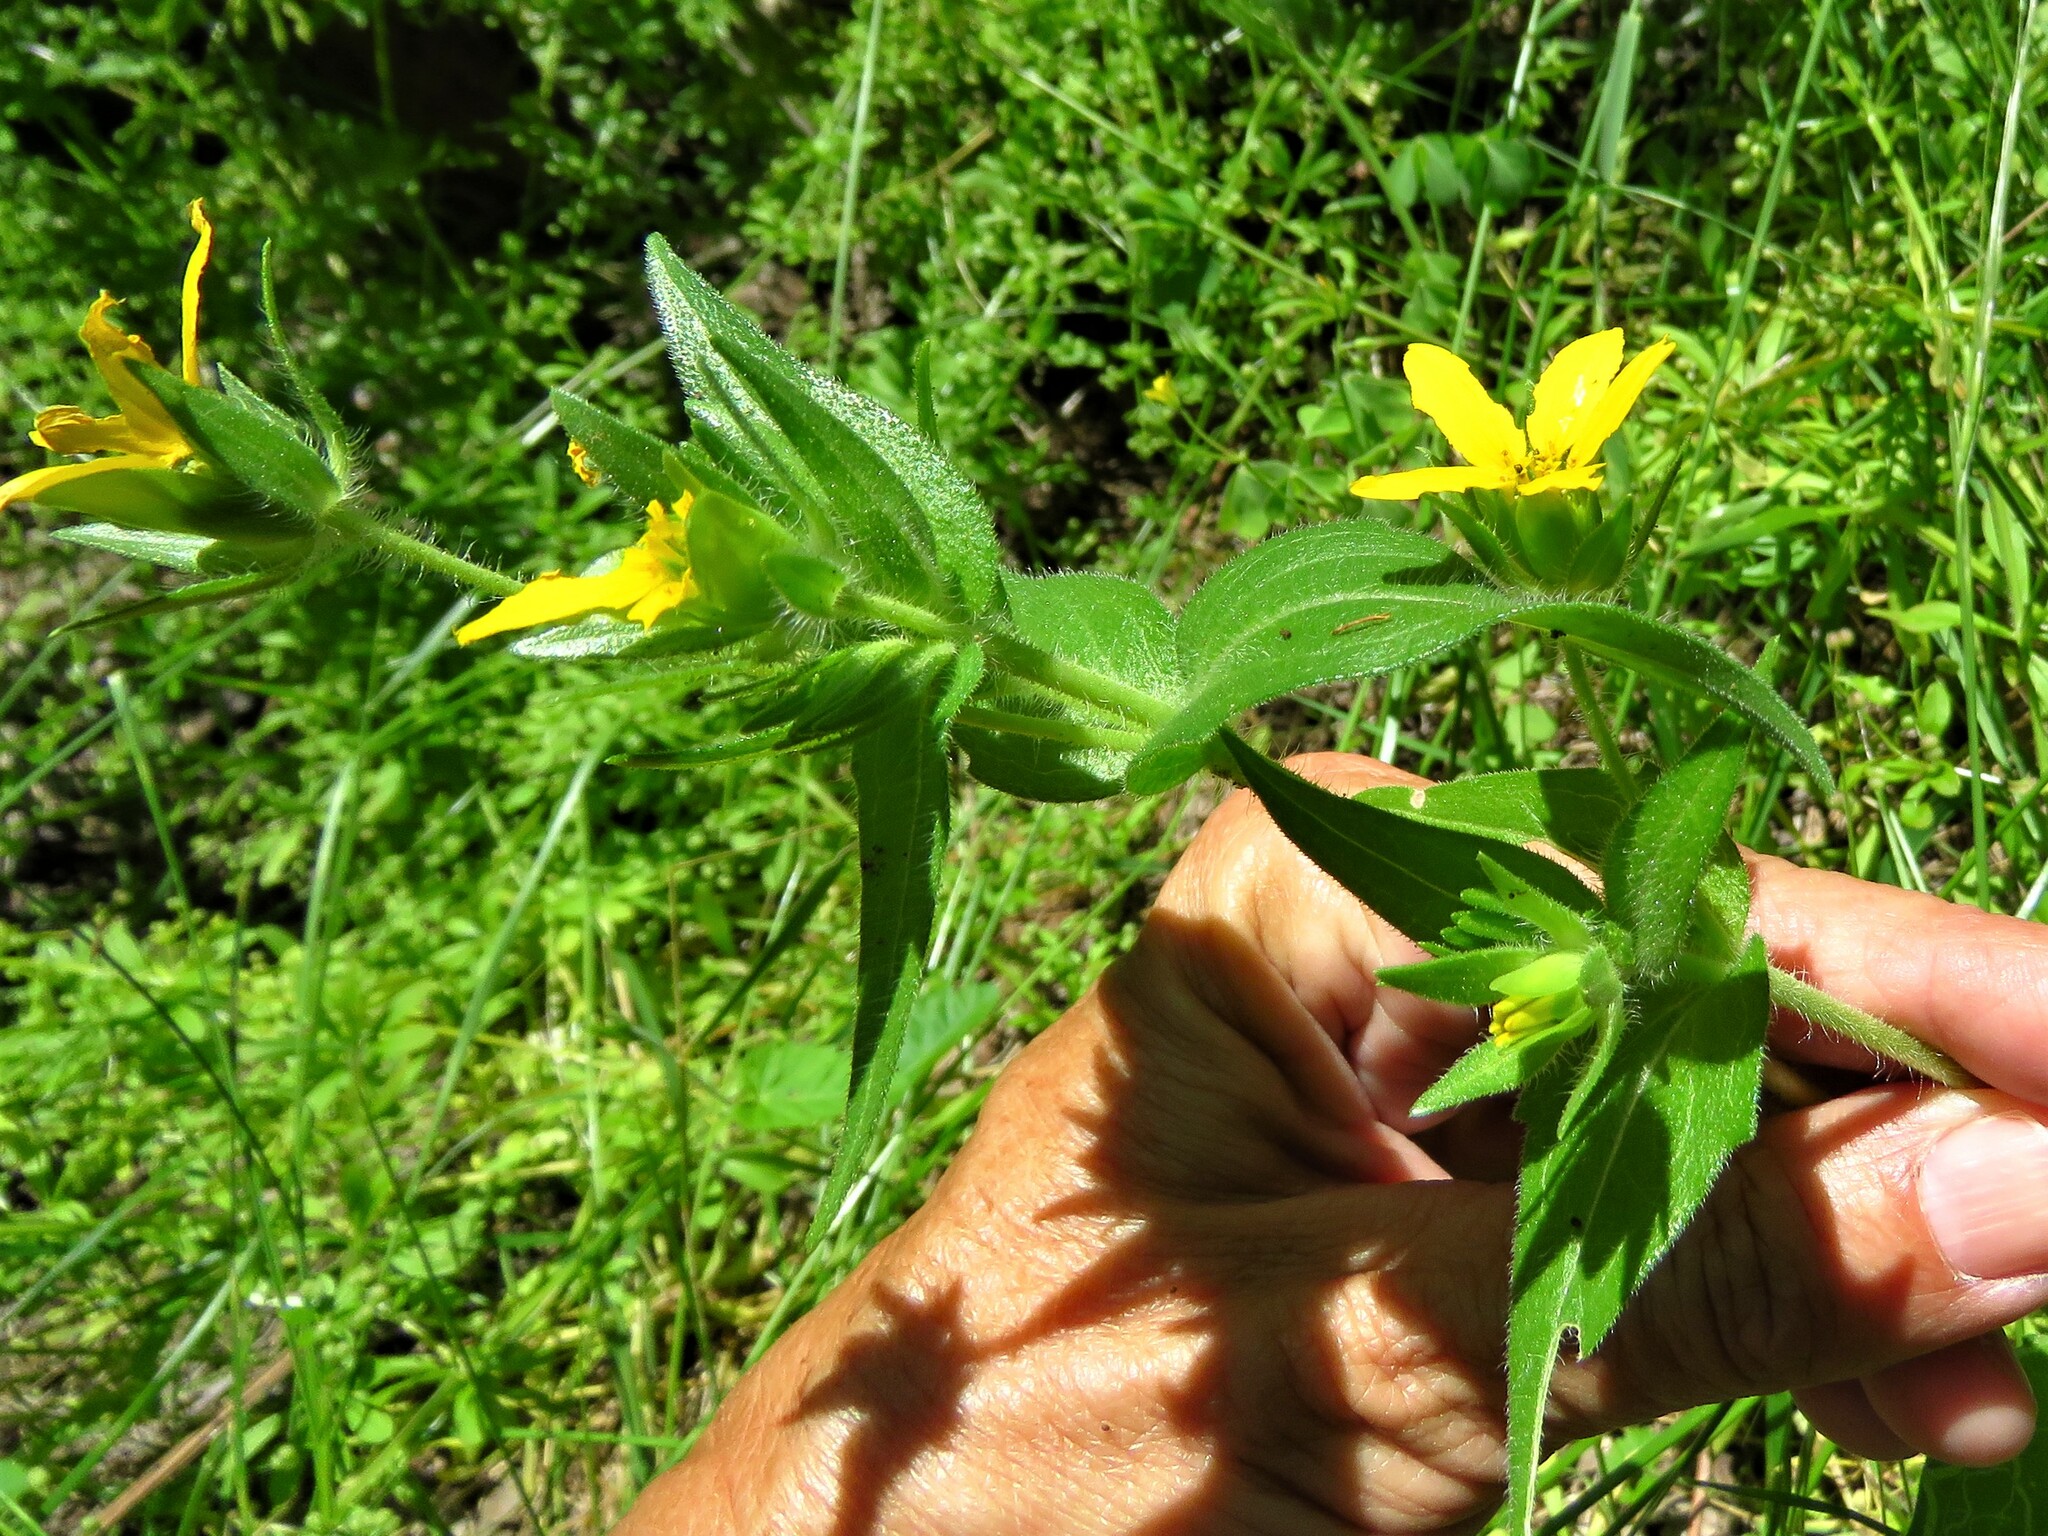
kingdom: Plantae
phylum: Tracheophyta
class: Magnoliopsida
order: Asterales
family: Asteraceae
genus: Lindheimera
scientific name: Lindheimera texana
